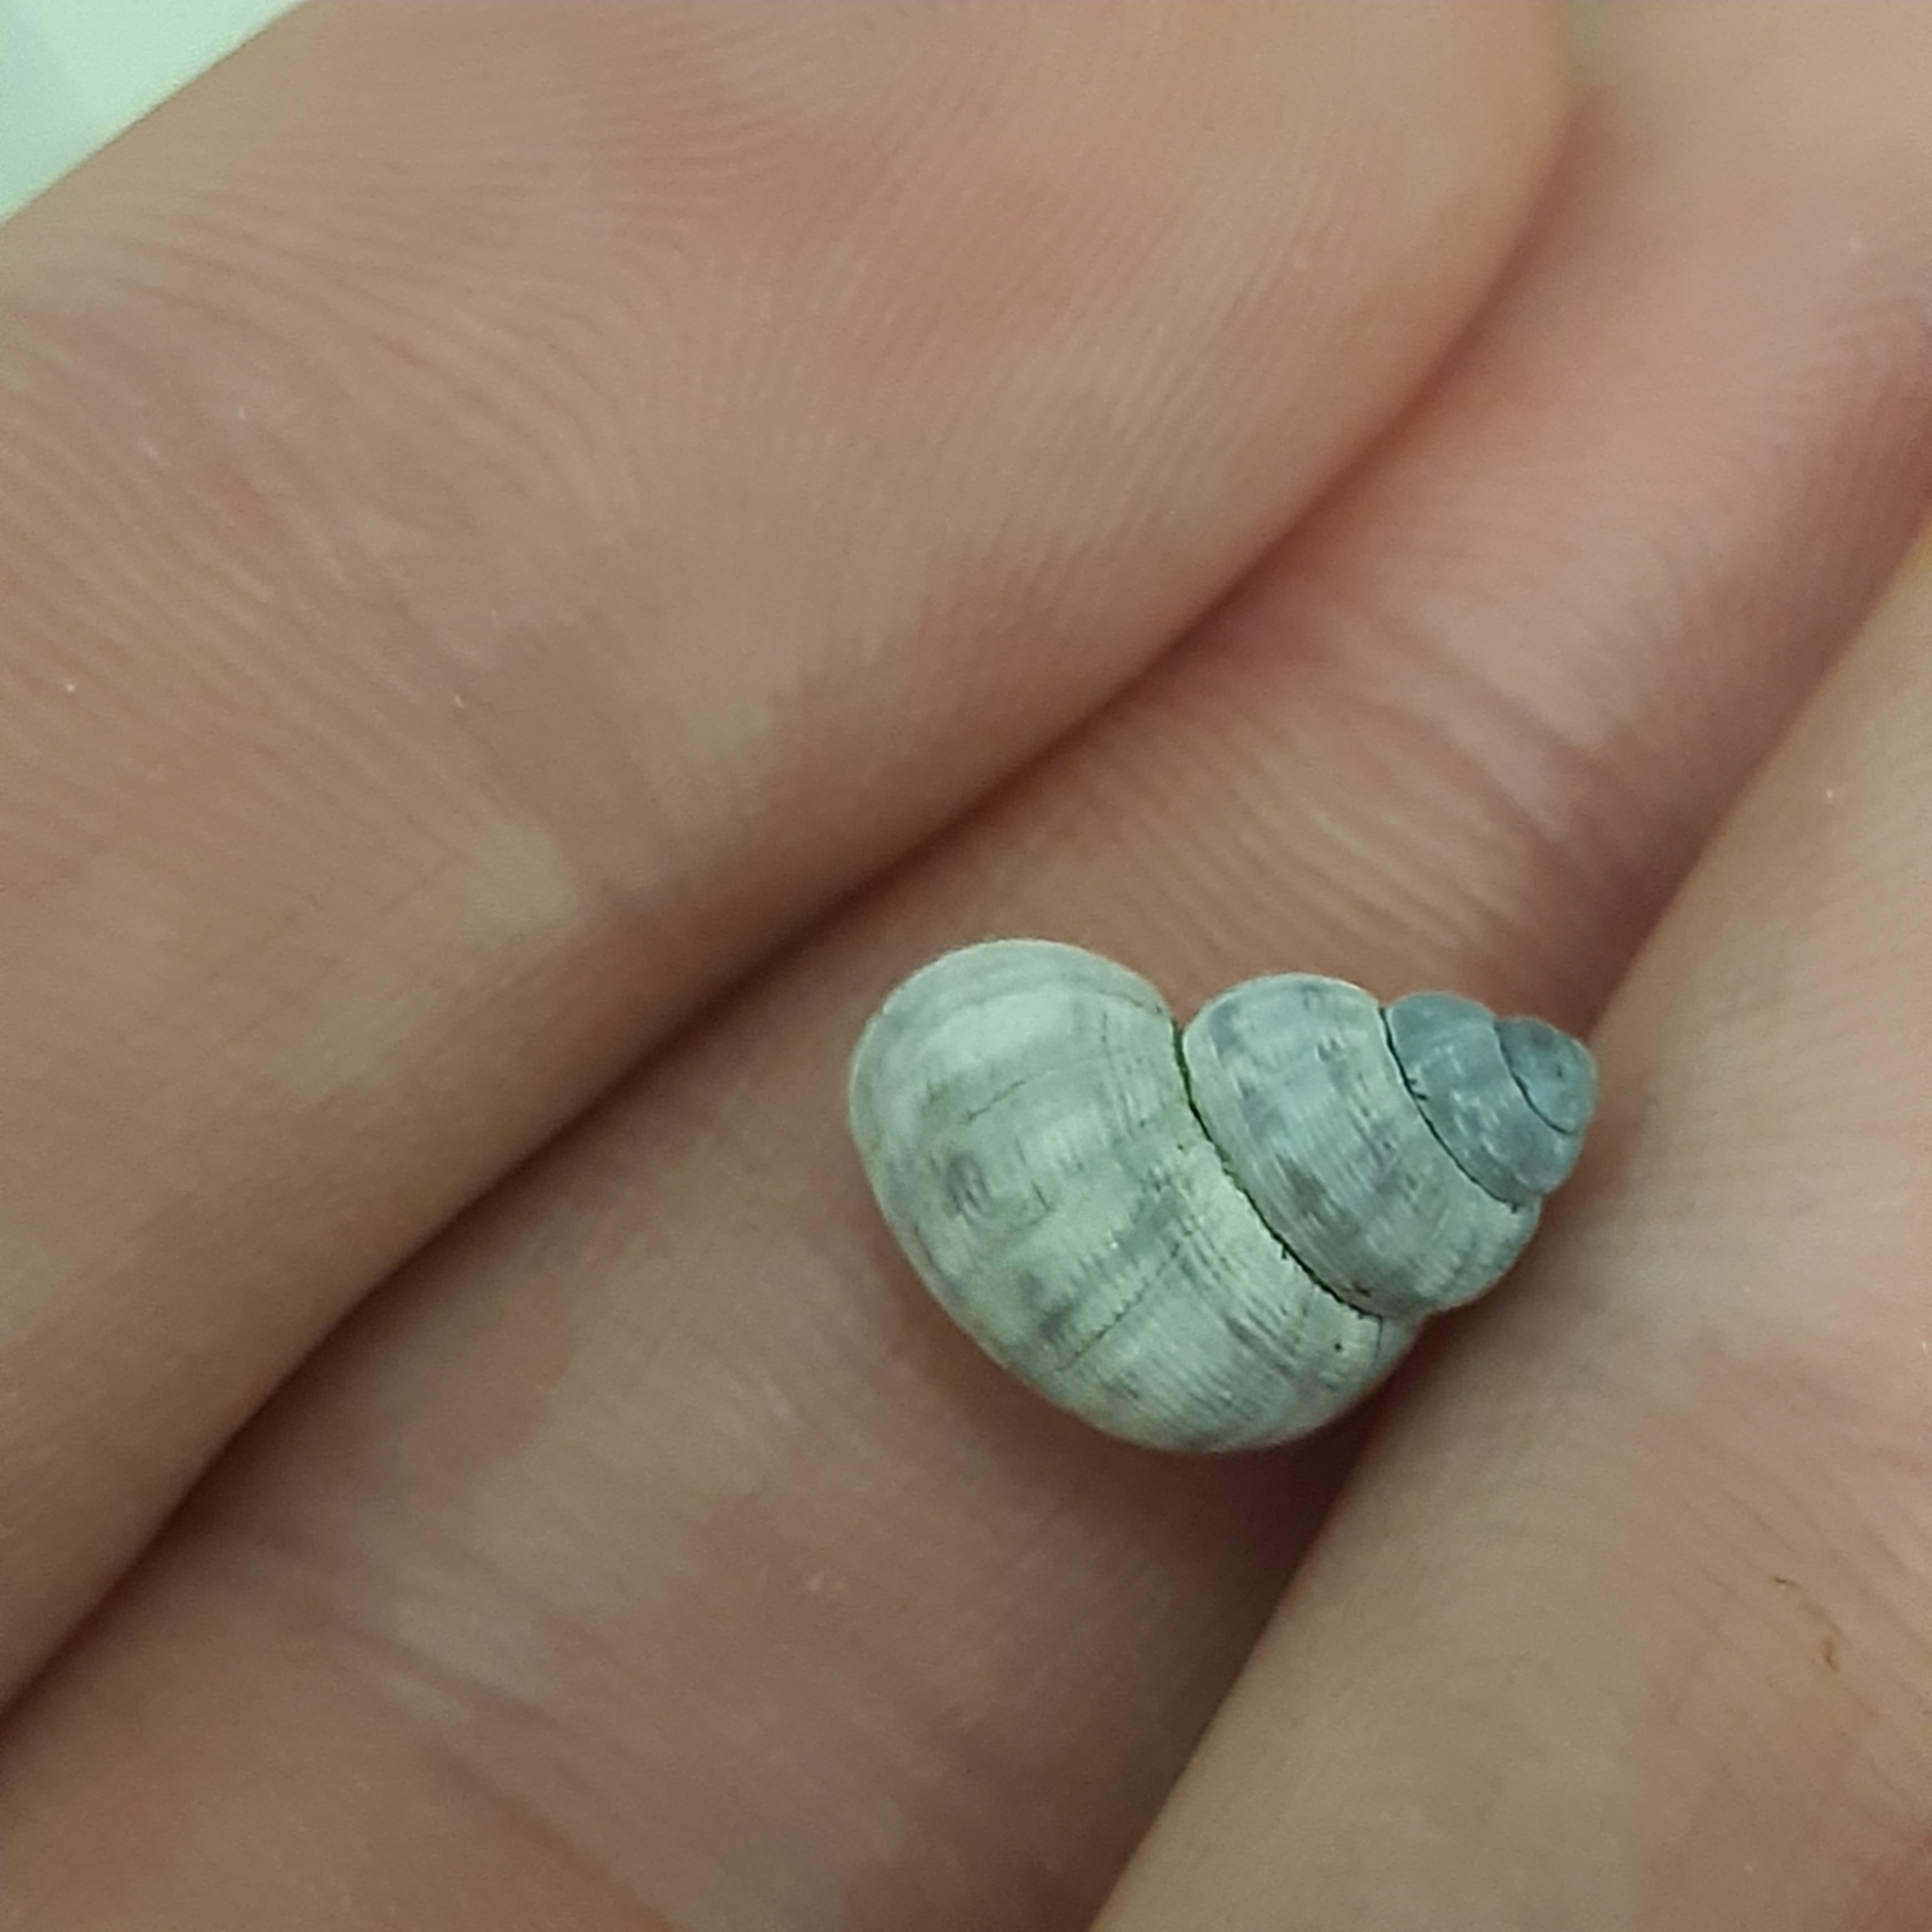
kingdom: Animalia
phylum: Mollusca
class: Gastropoda
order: Littorinimorpha
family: Pomatiidae
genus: Pomatias
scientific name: Pomatias elegans
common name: Red-mouthed snail
